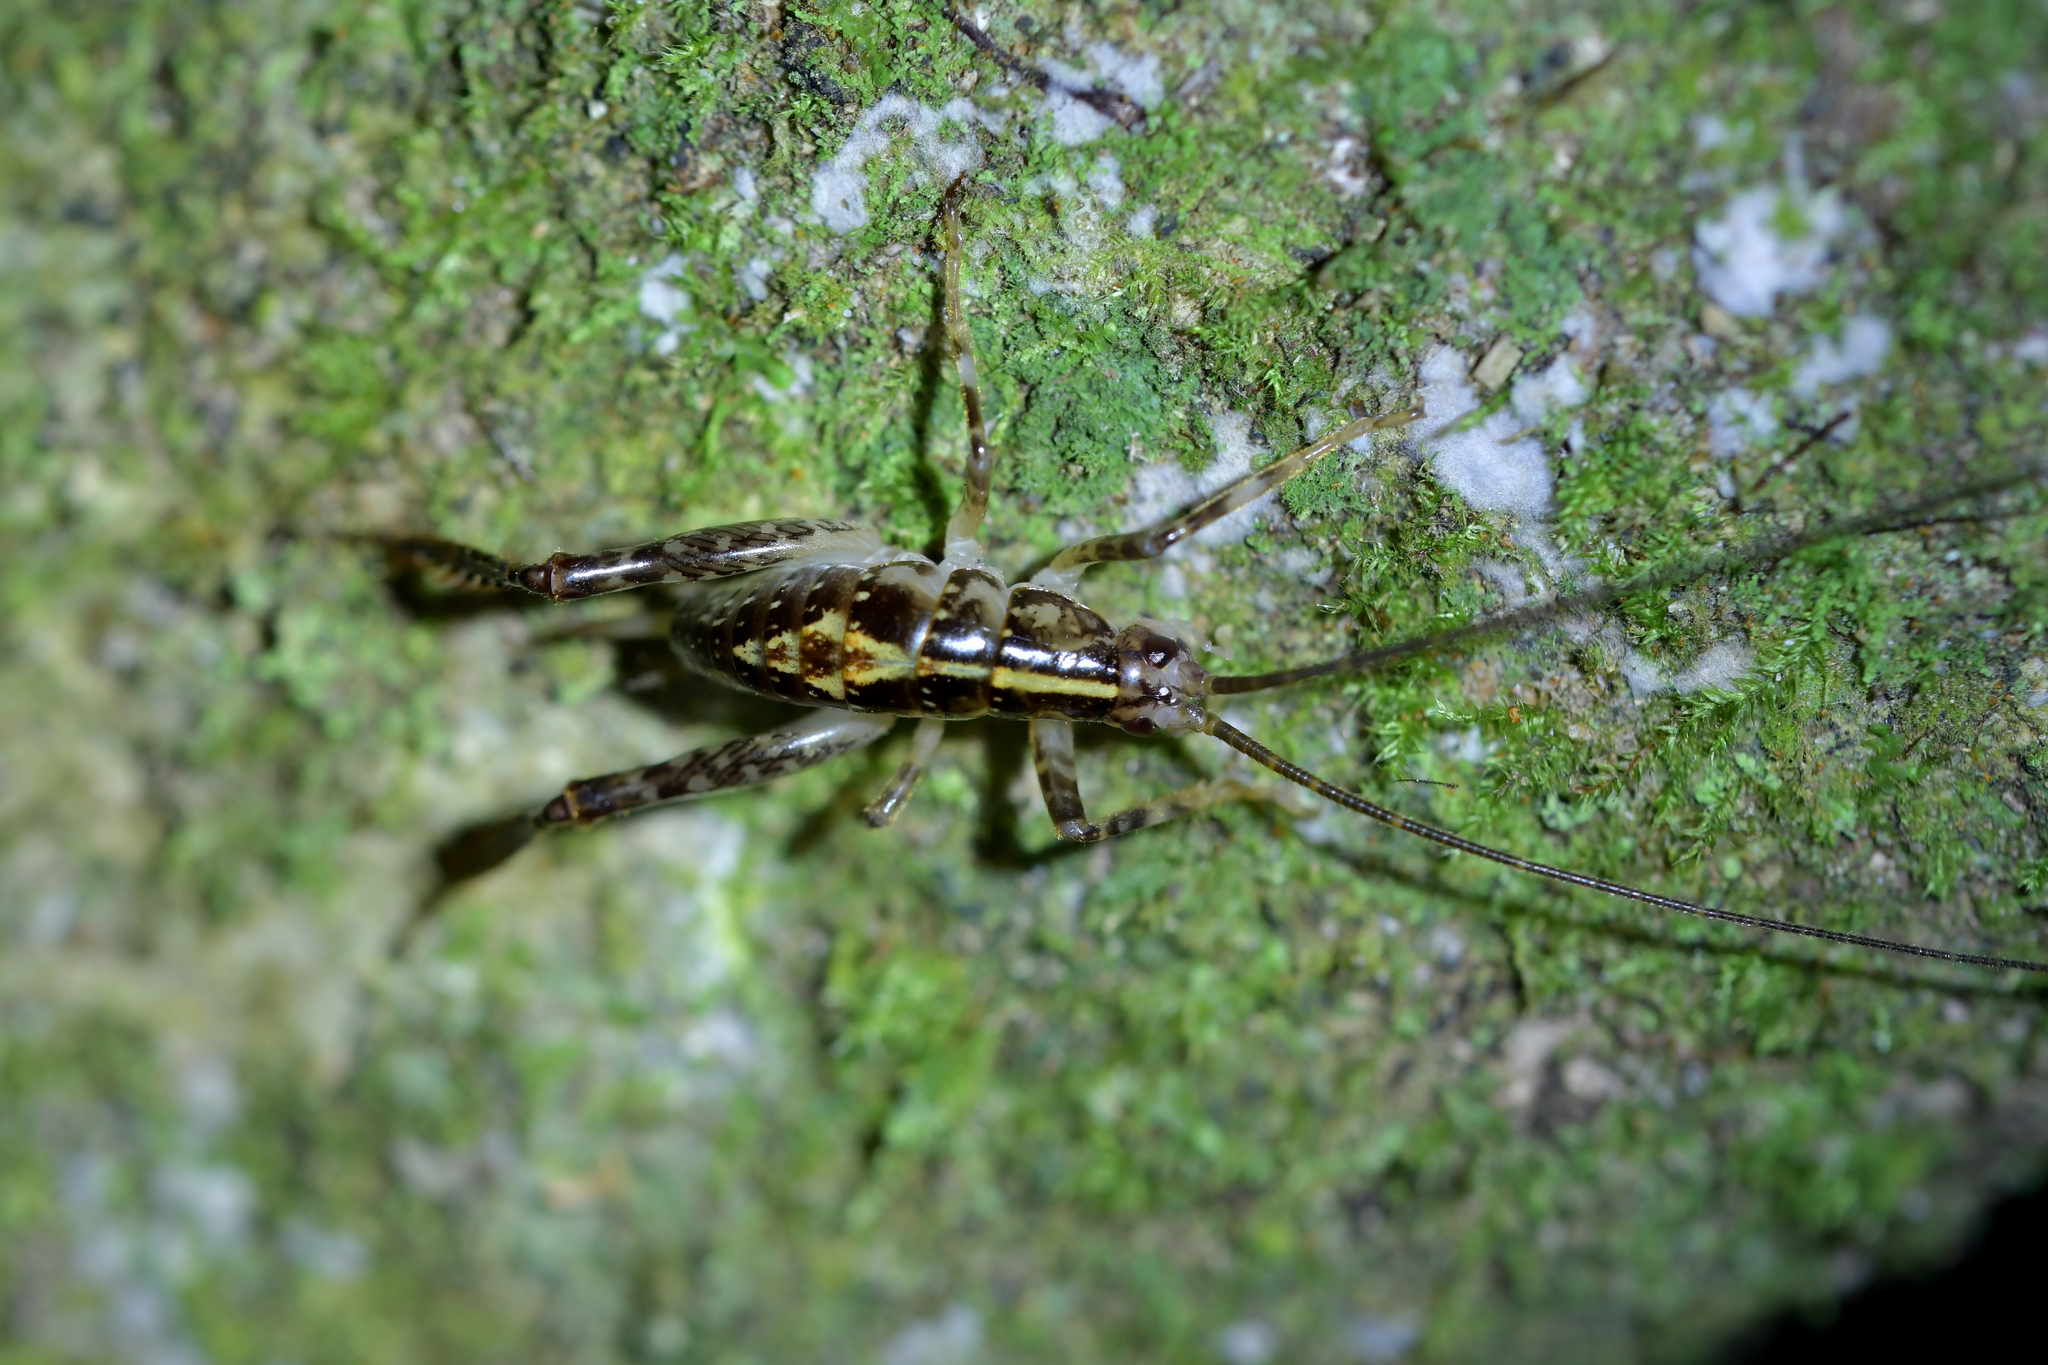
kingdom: Animalia
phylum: Arthropoda
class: Insecta
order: Orthoptera
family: Rhaphidophoridae
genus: Talitropsis
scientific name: Talitropsis sedilloti
